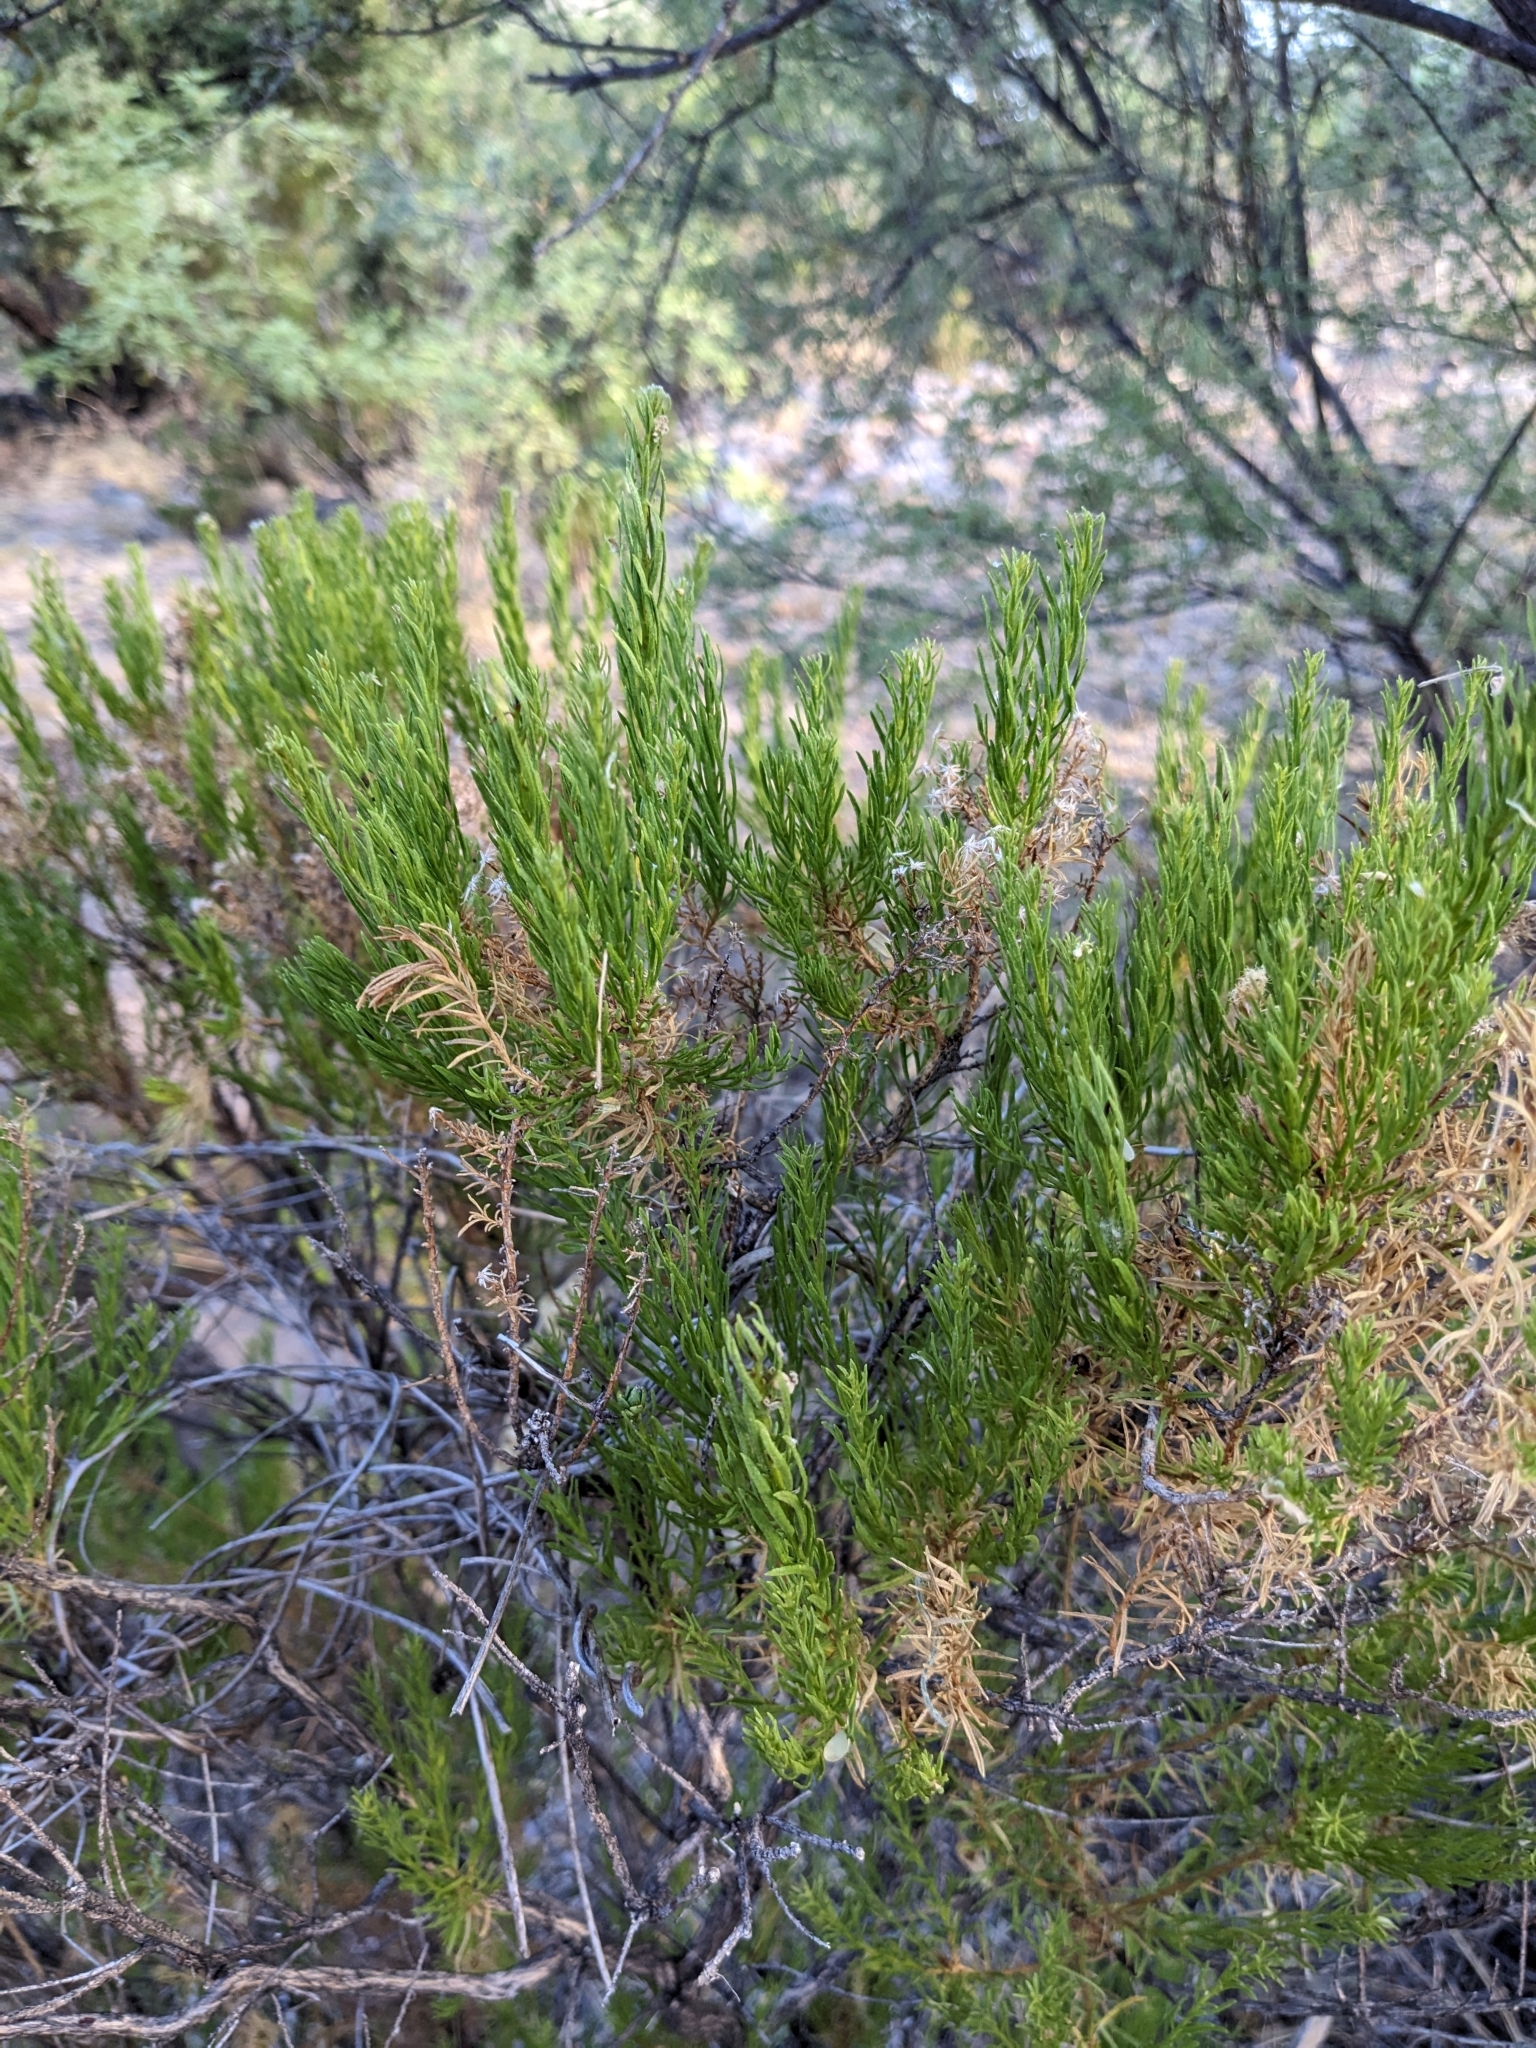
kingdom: Plantae
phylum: Tracheophyta
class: Magnoliopsida
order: Asterales
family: Asteraceae
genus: Ericameria
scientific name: Ericameria laricifolia
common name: Turpentine-bush
